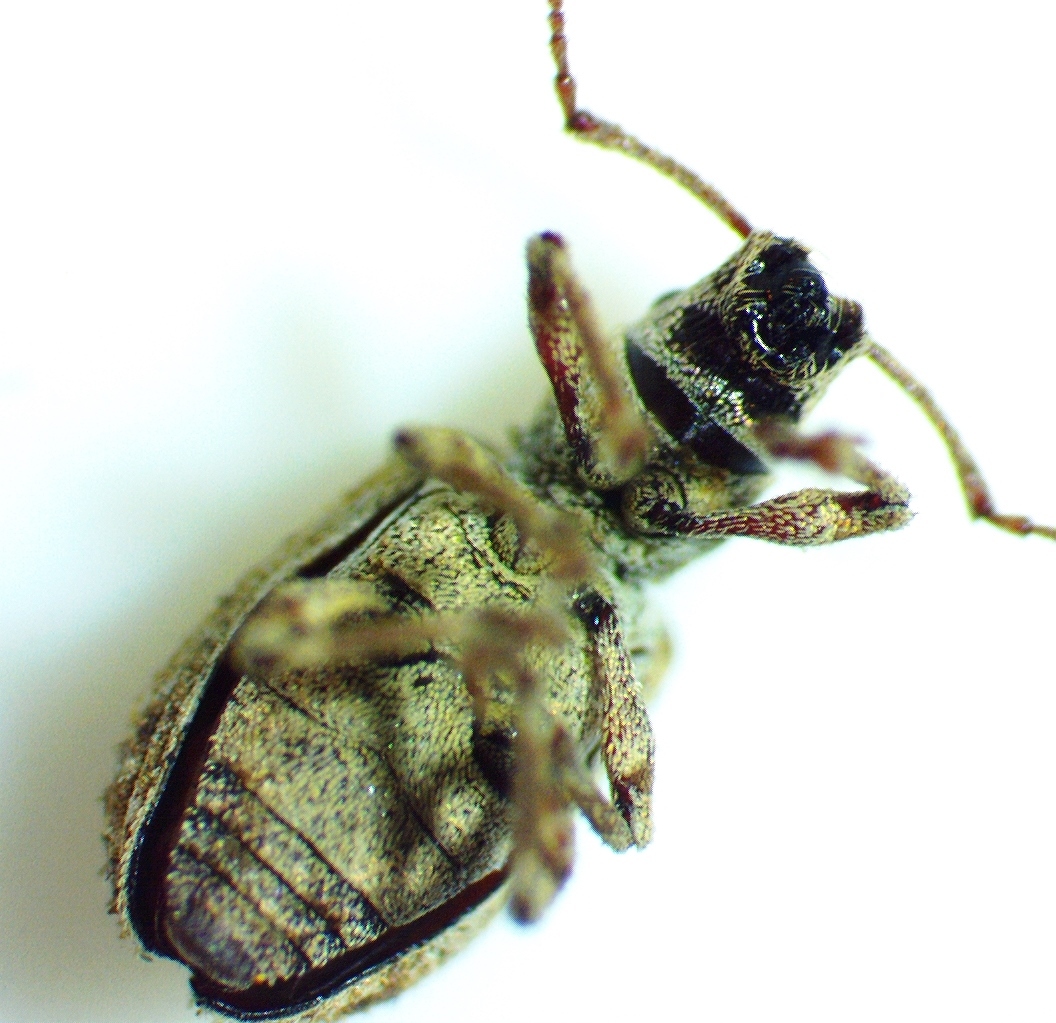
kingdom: Animalia
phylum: Arthropoda
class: Insecta
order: Coleoptera
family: Curculionidae
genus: Pseudoedophrys
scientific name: Pseudoedophrys hilleri
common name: Weevil
